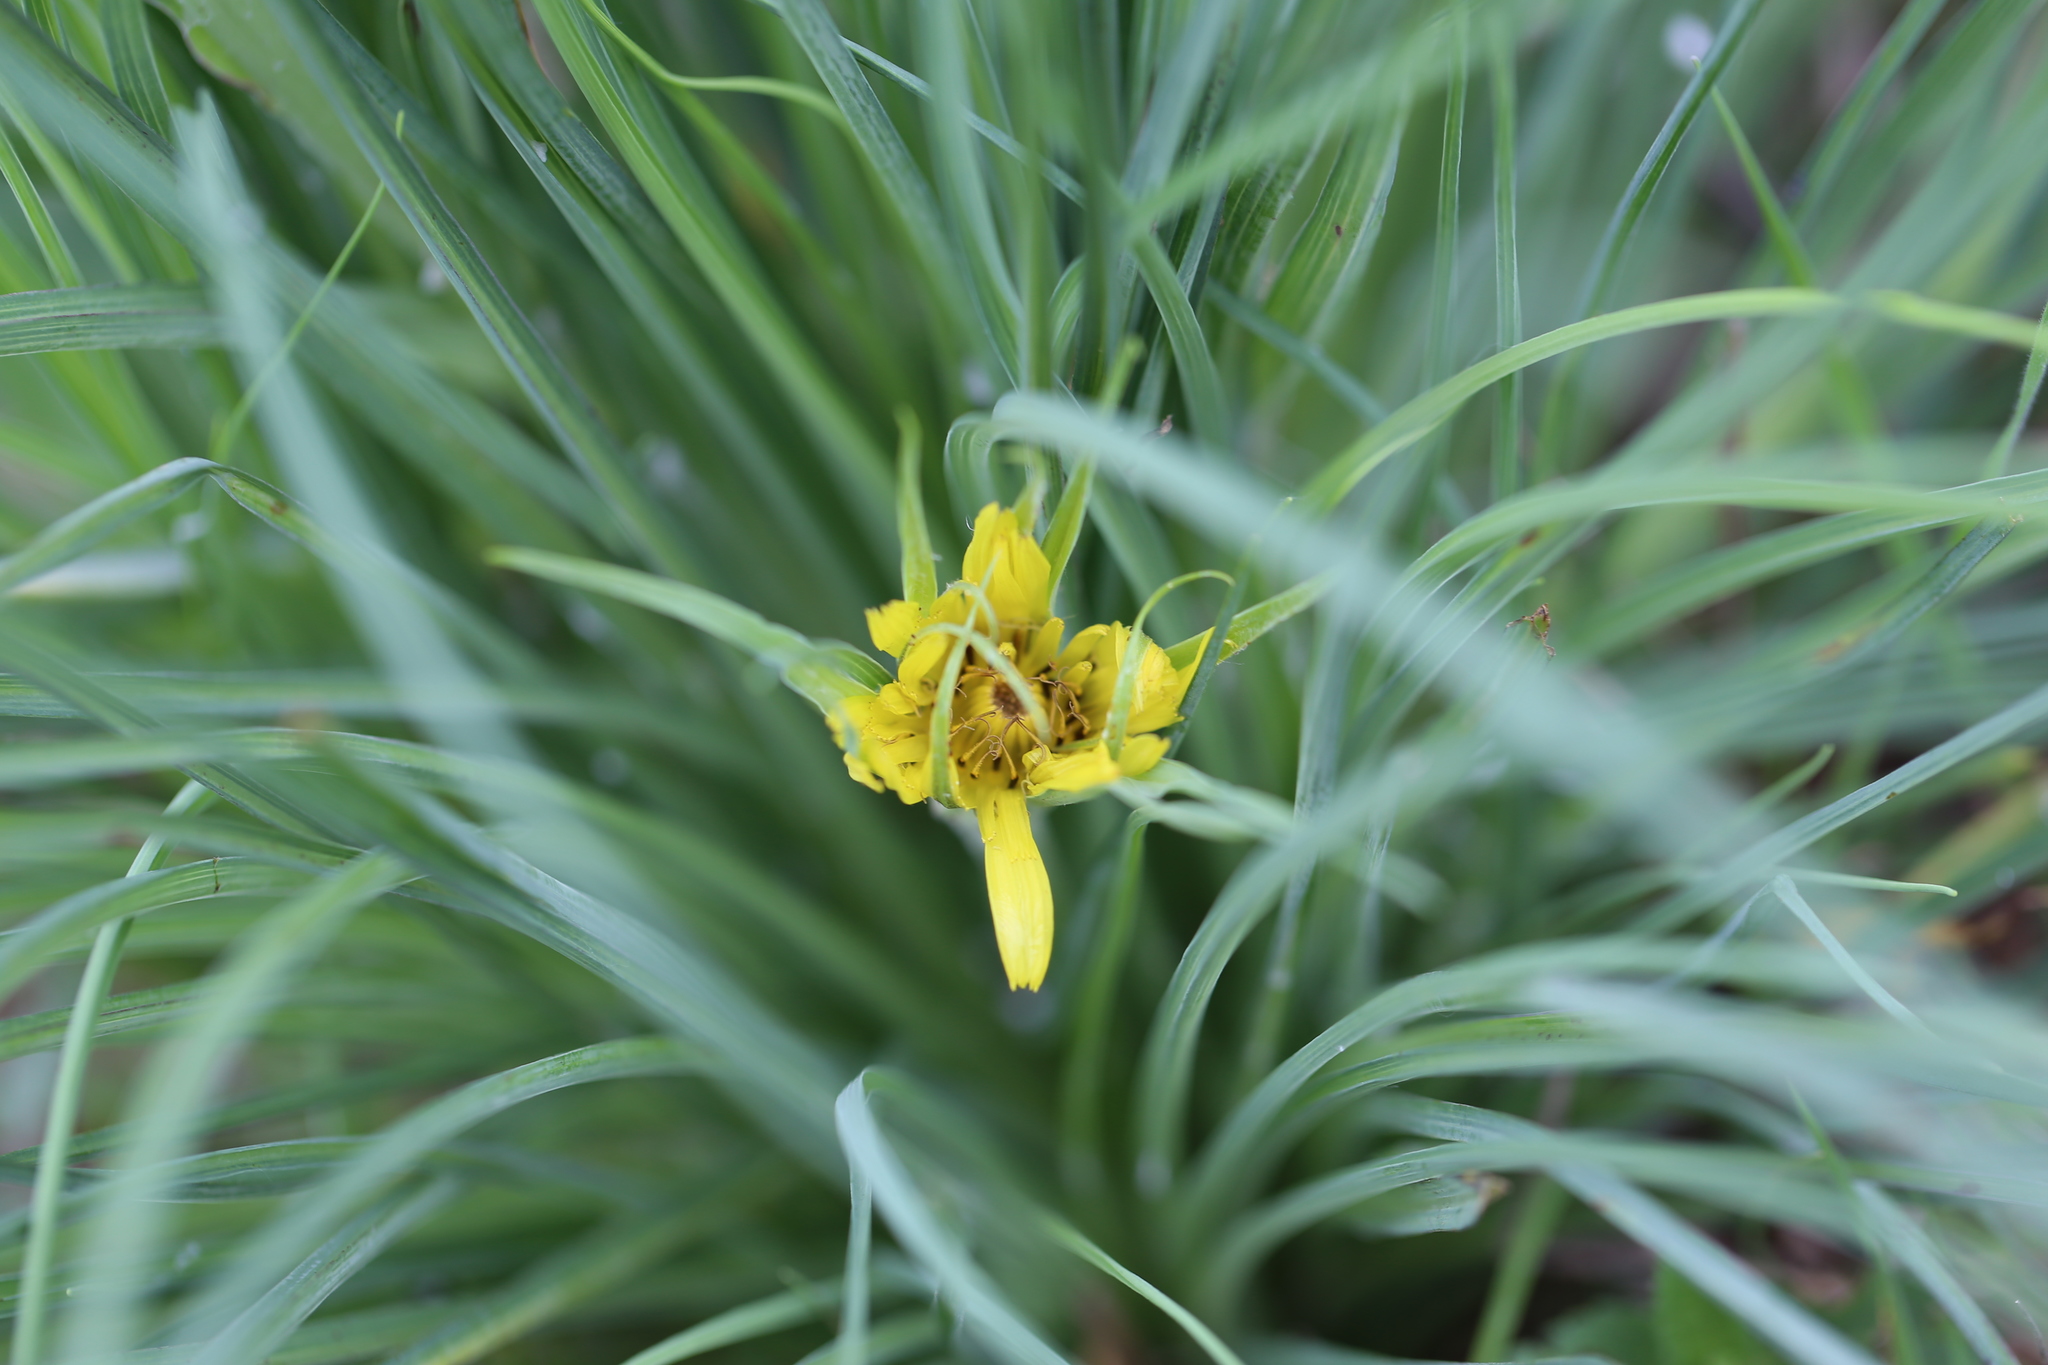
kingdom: Plantae
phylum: Tracheophyta
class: Magnoliopsida
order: Asterales
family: Asteraceae
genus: Tragopogon
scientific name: Tragopogon dubius
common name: Yellow salsify
